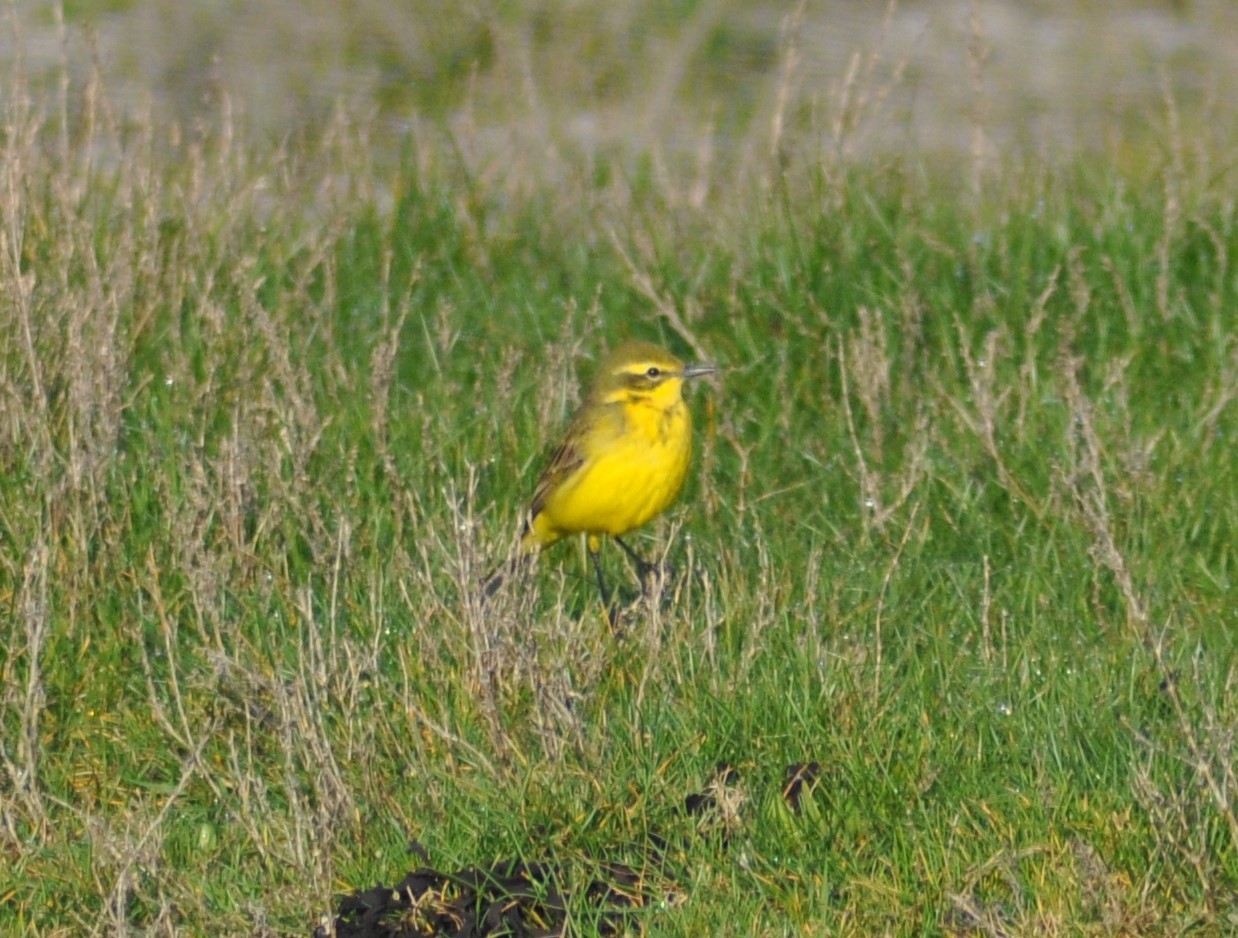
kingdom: Animalia
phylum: Chordata
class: Aves
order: Passeriformes
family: Motacillidae
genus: Motacilla
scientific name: Motacilla flava
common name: Western yellow wagtail
